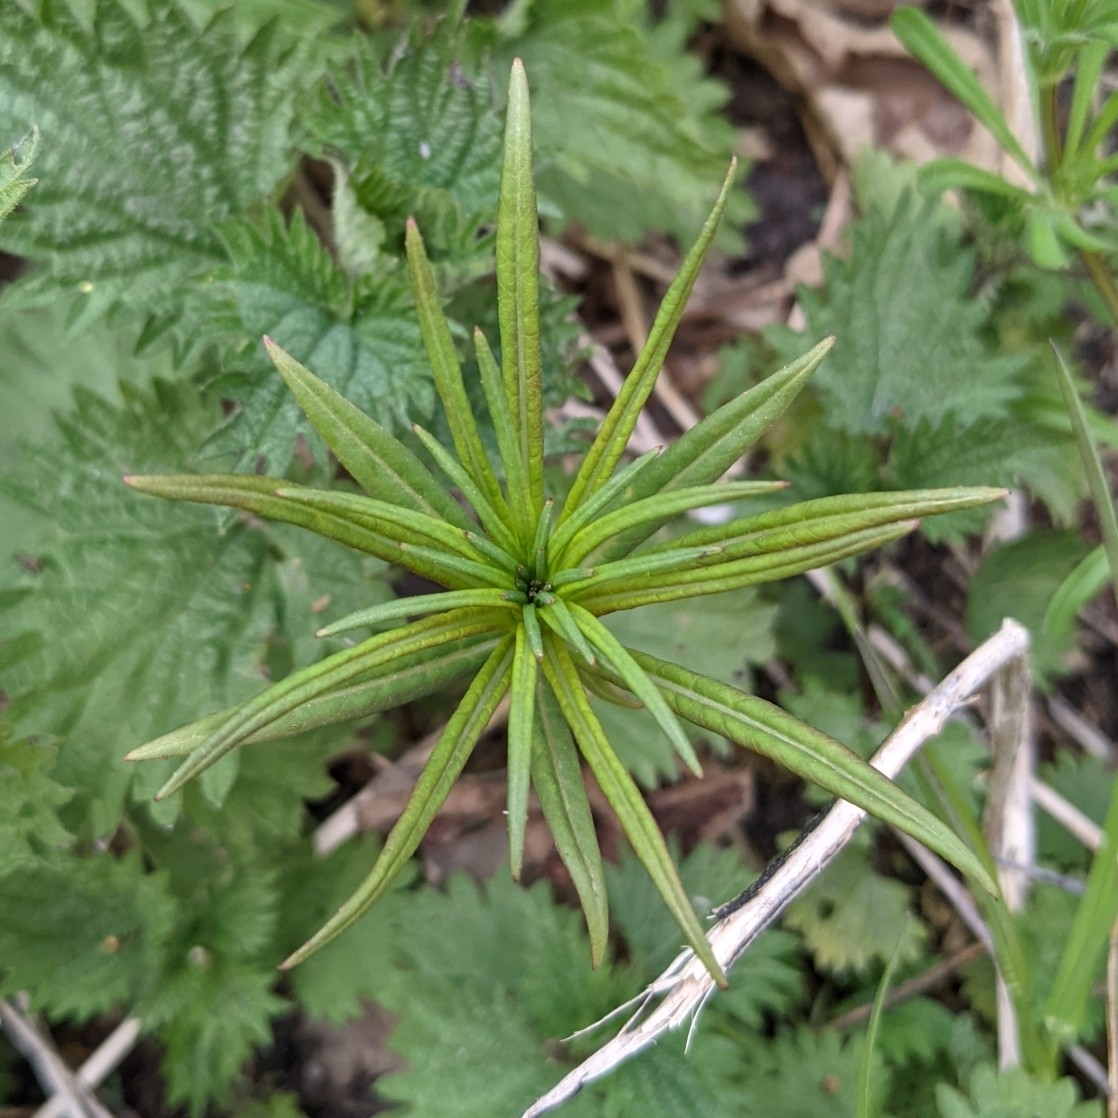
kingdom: Plantae
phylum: Tracheophyta
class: Magnoliopsida
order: Myrtales
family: Onagraceae
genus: Chamaenerion
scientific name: Chamaenerion angustifolium
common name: Fireweed
